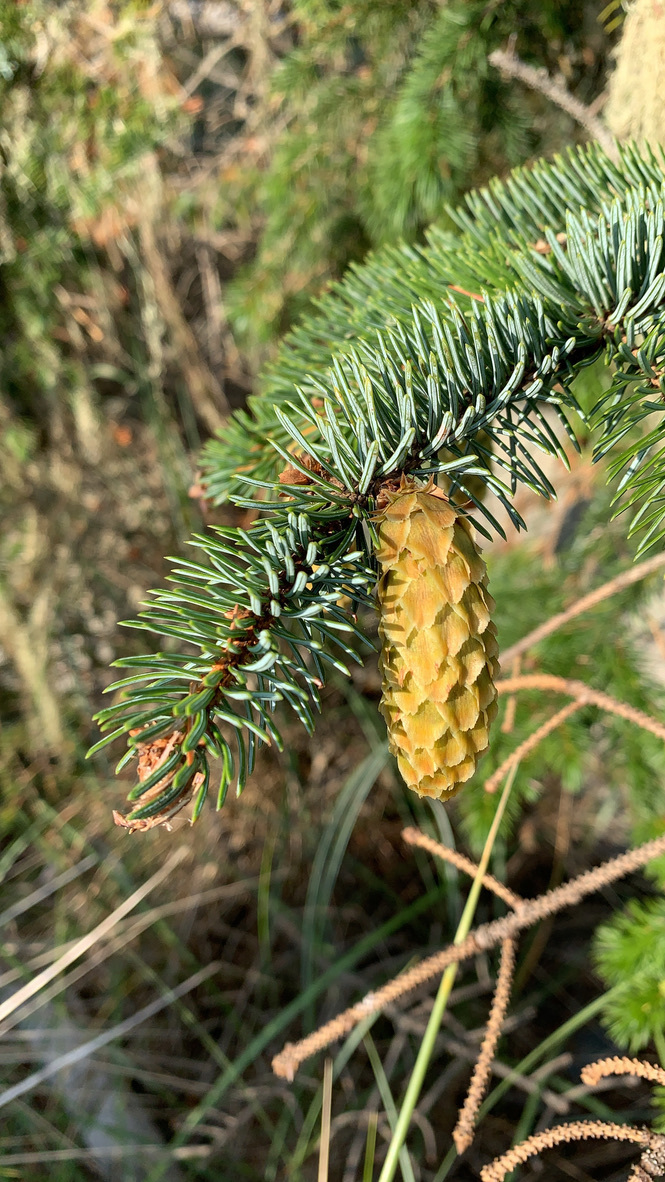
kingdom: Plantae
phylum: Tracheophyta
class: Pinopsida
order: Pinales
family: Pinaceae
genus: Picea
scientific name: Picea sitchensis
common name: Sitka spruce
